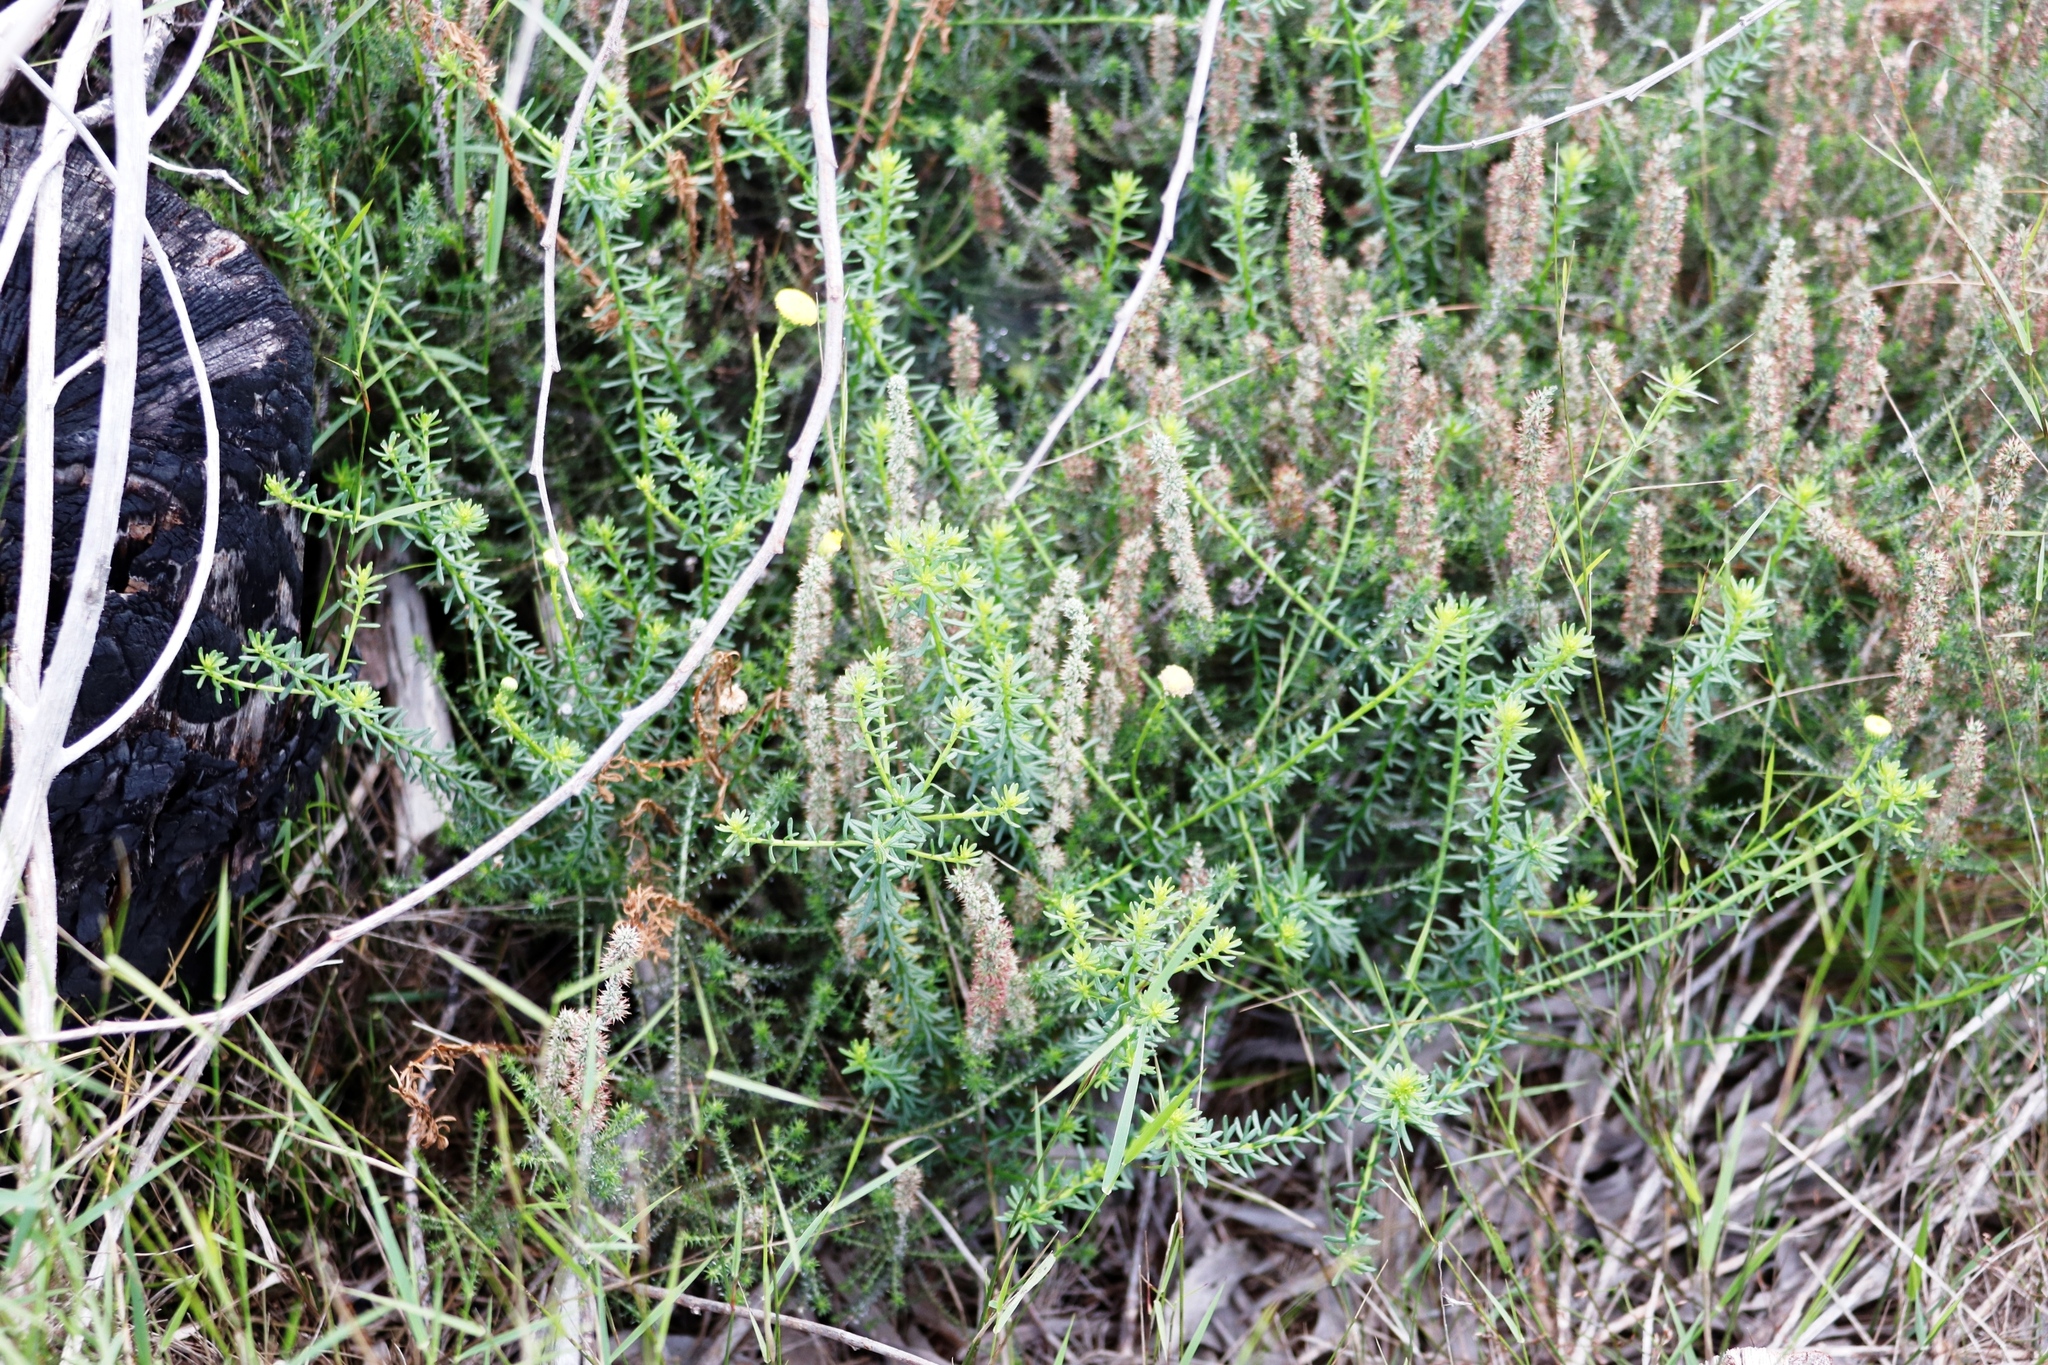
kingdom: Plantae
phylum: Tracheophyta
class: Magnoliopsida
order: Asterales
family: Asteraceae
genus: Seriphium
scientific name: Seriphium cinereum
